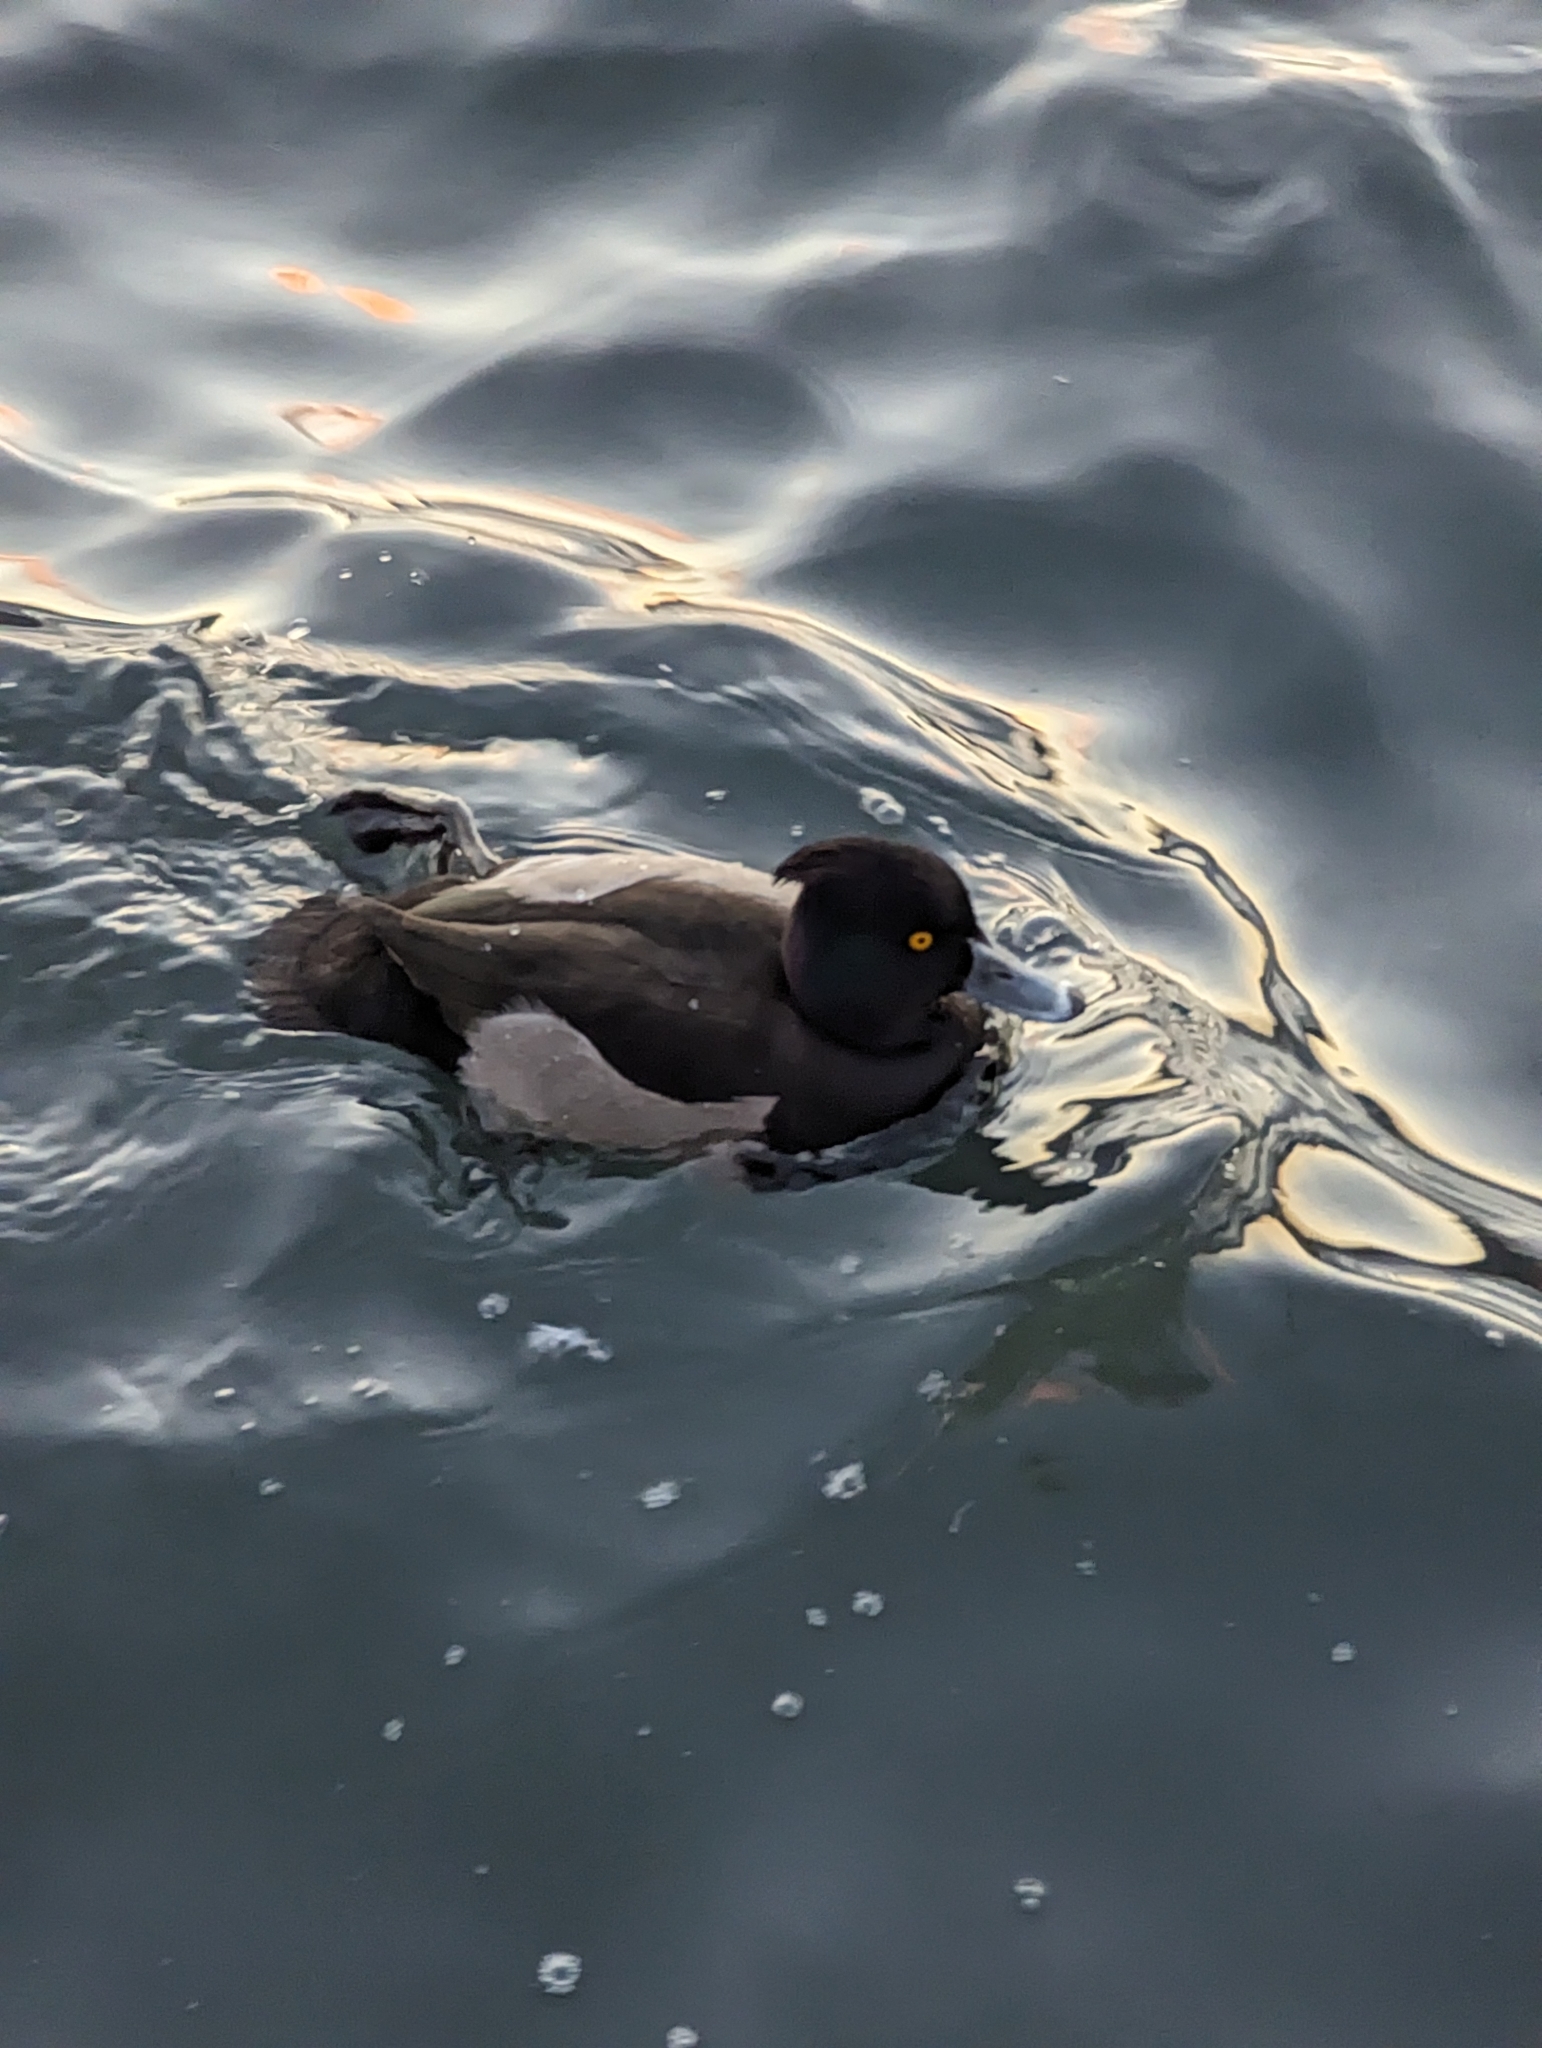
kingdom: Animalia
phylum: Chordata
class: Aves
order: Anseriformes
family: Anatidae
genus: Aythya
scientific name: Aythya fuligula
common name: Tufted duck
